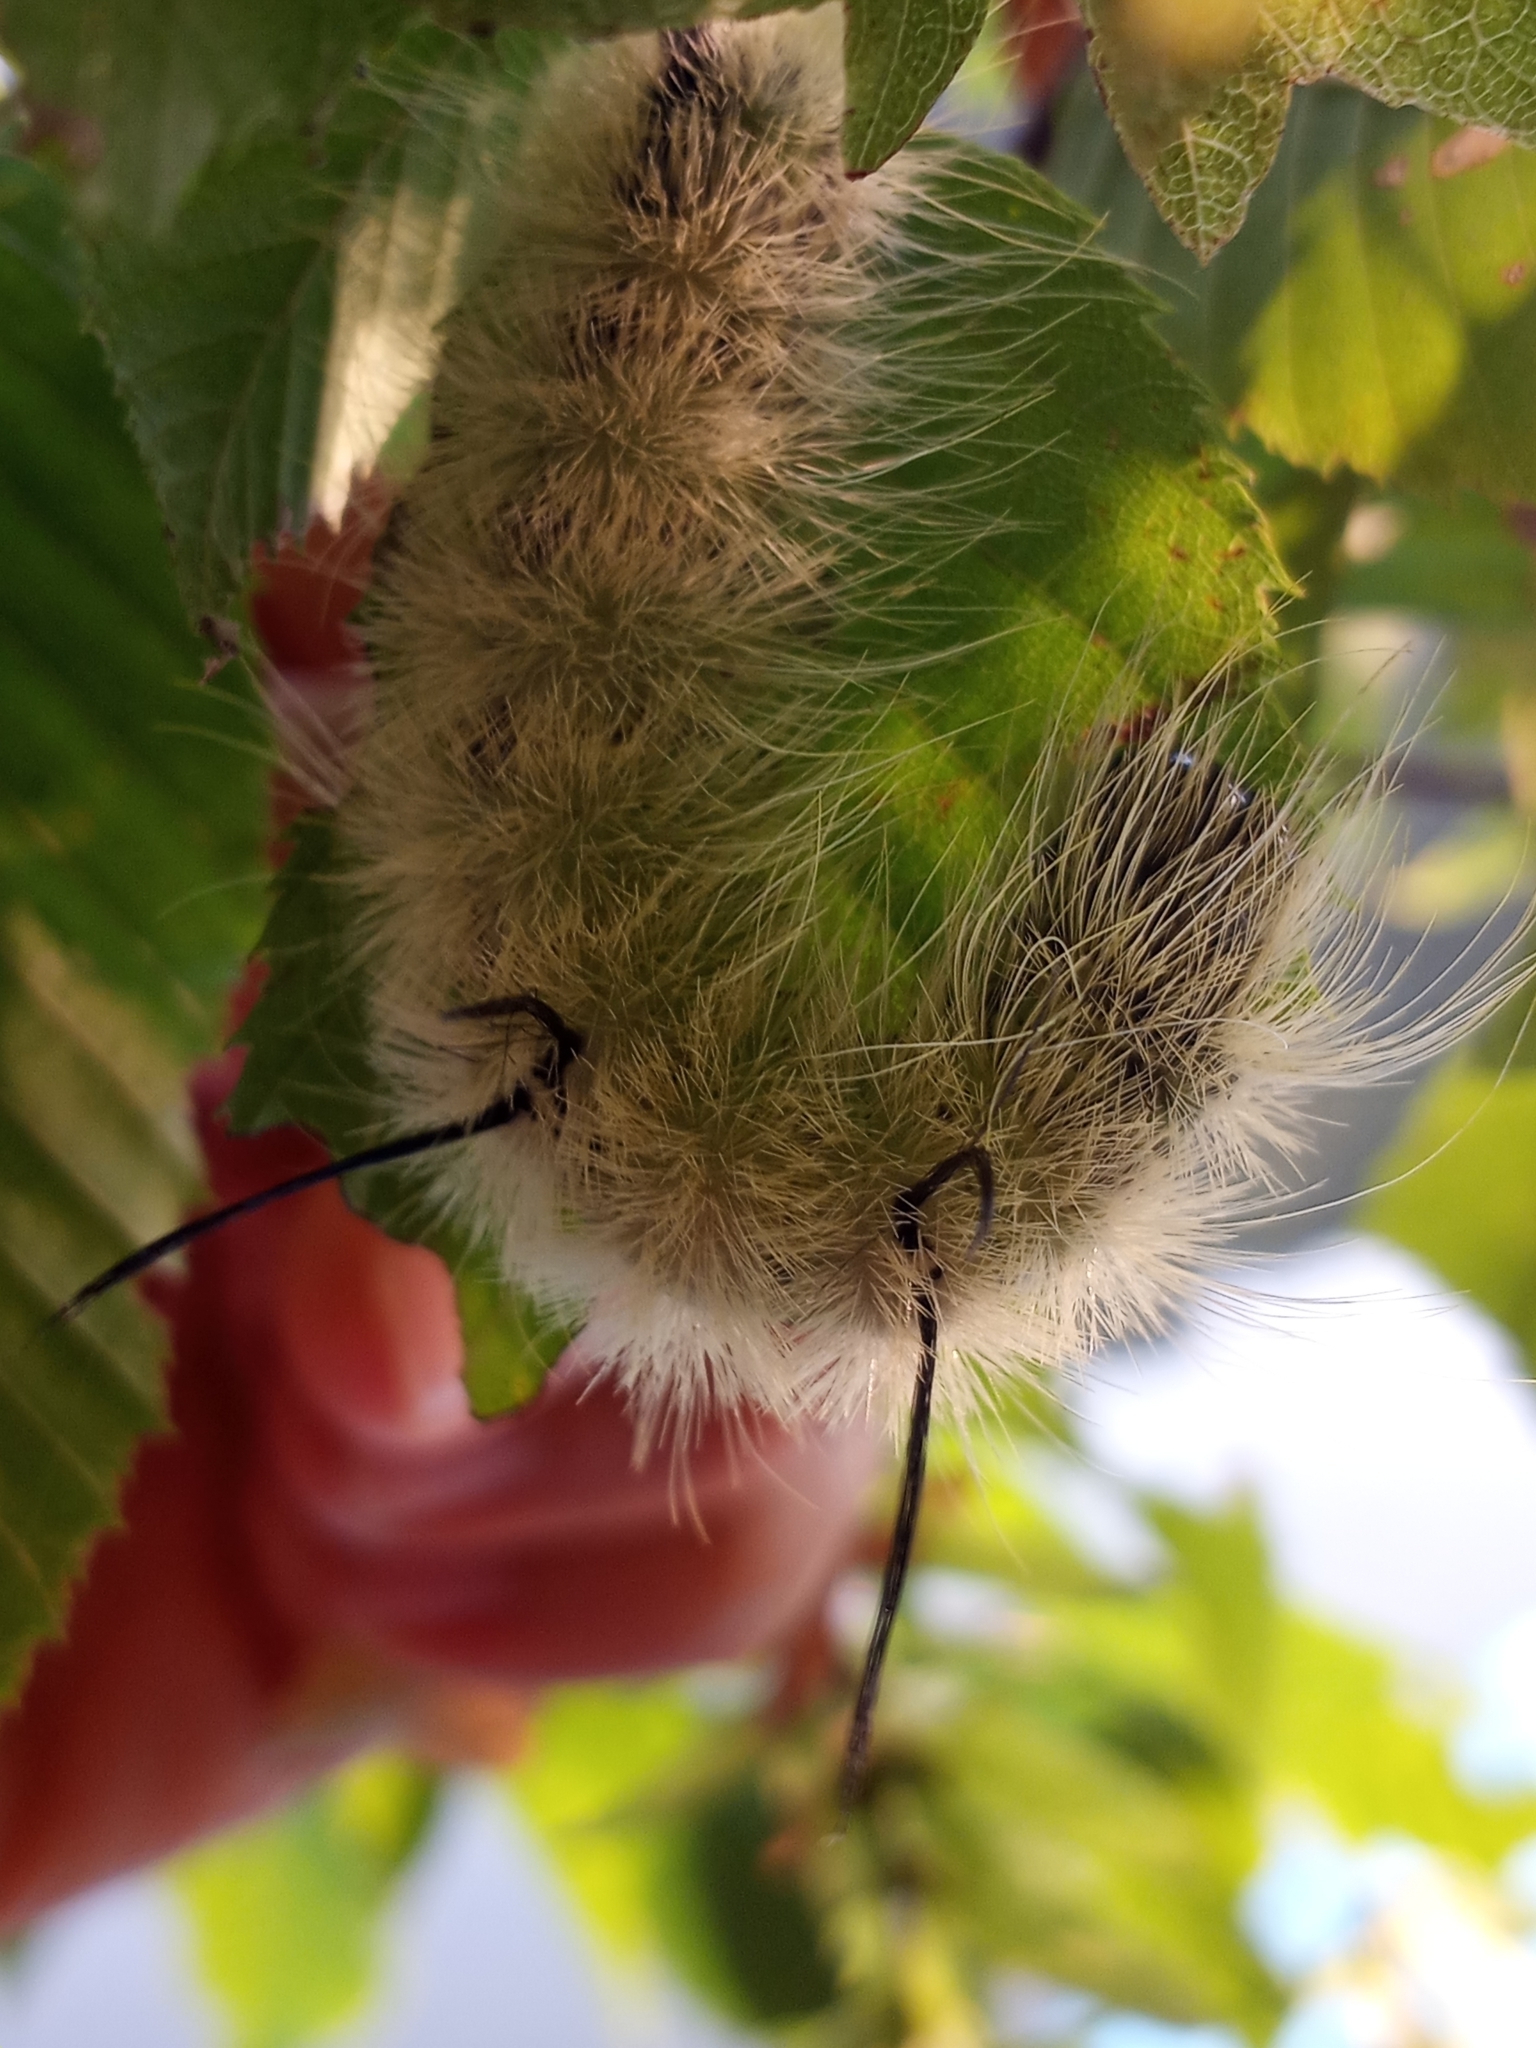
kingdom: Animalia
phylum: Arthropoda
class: Insecta
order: Lepidoptera
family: Noctuidae
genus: Acronicta
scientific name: Acronicta americana
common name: American dagger
